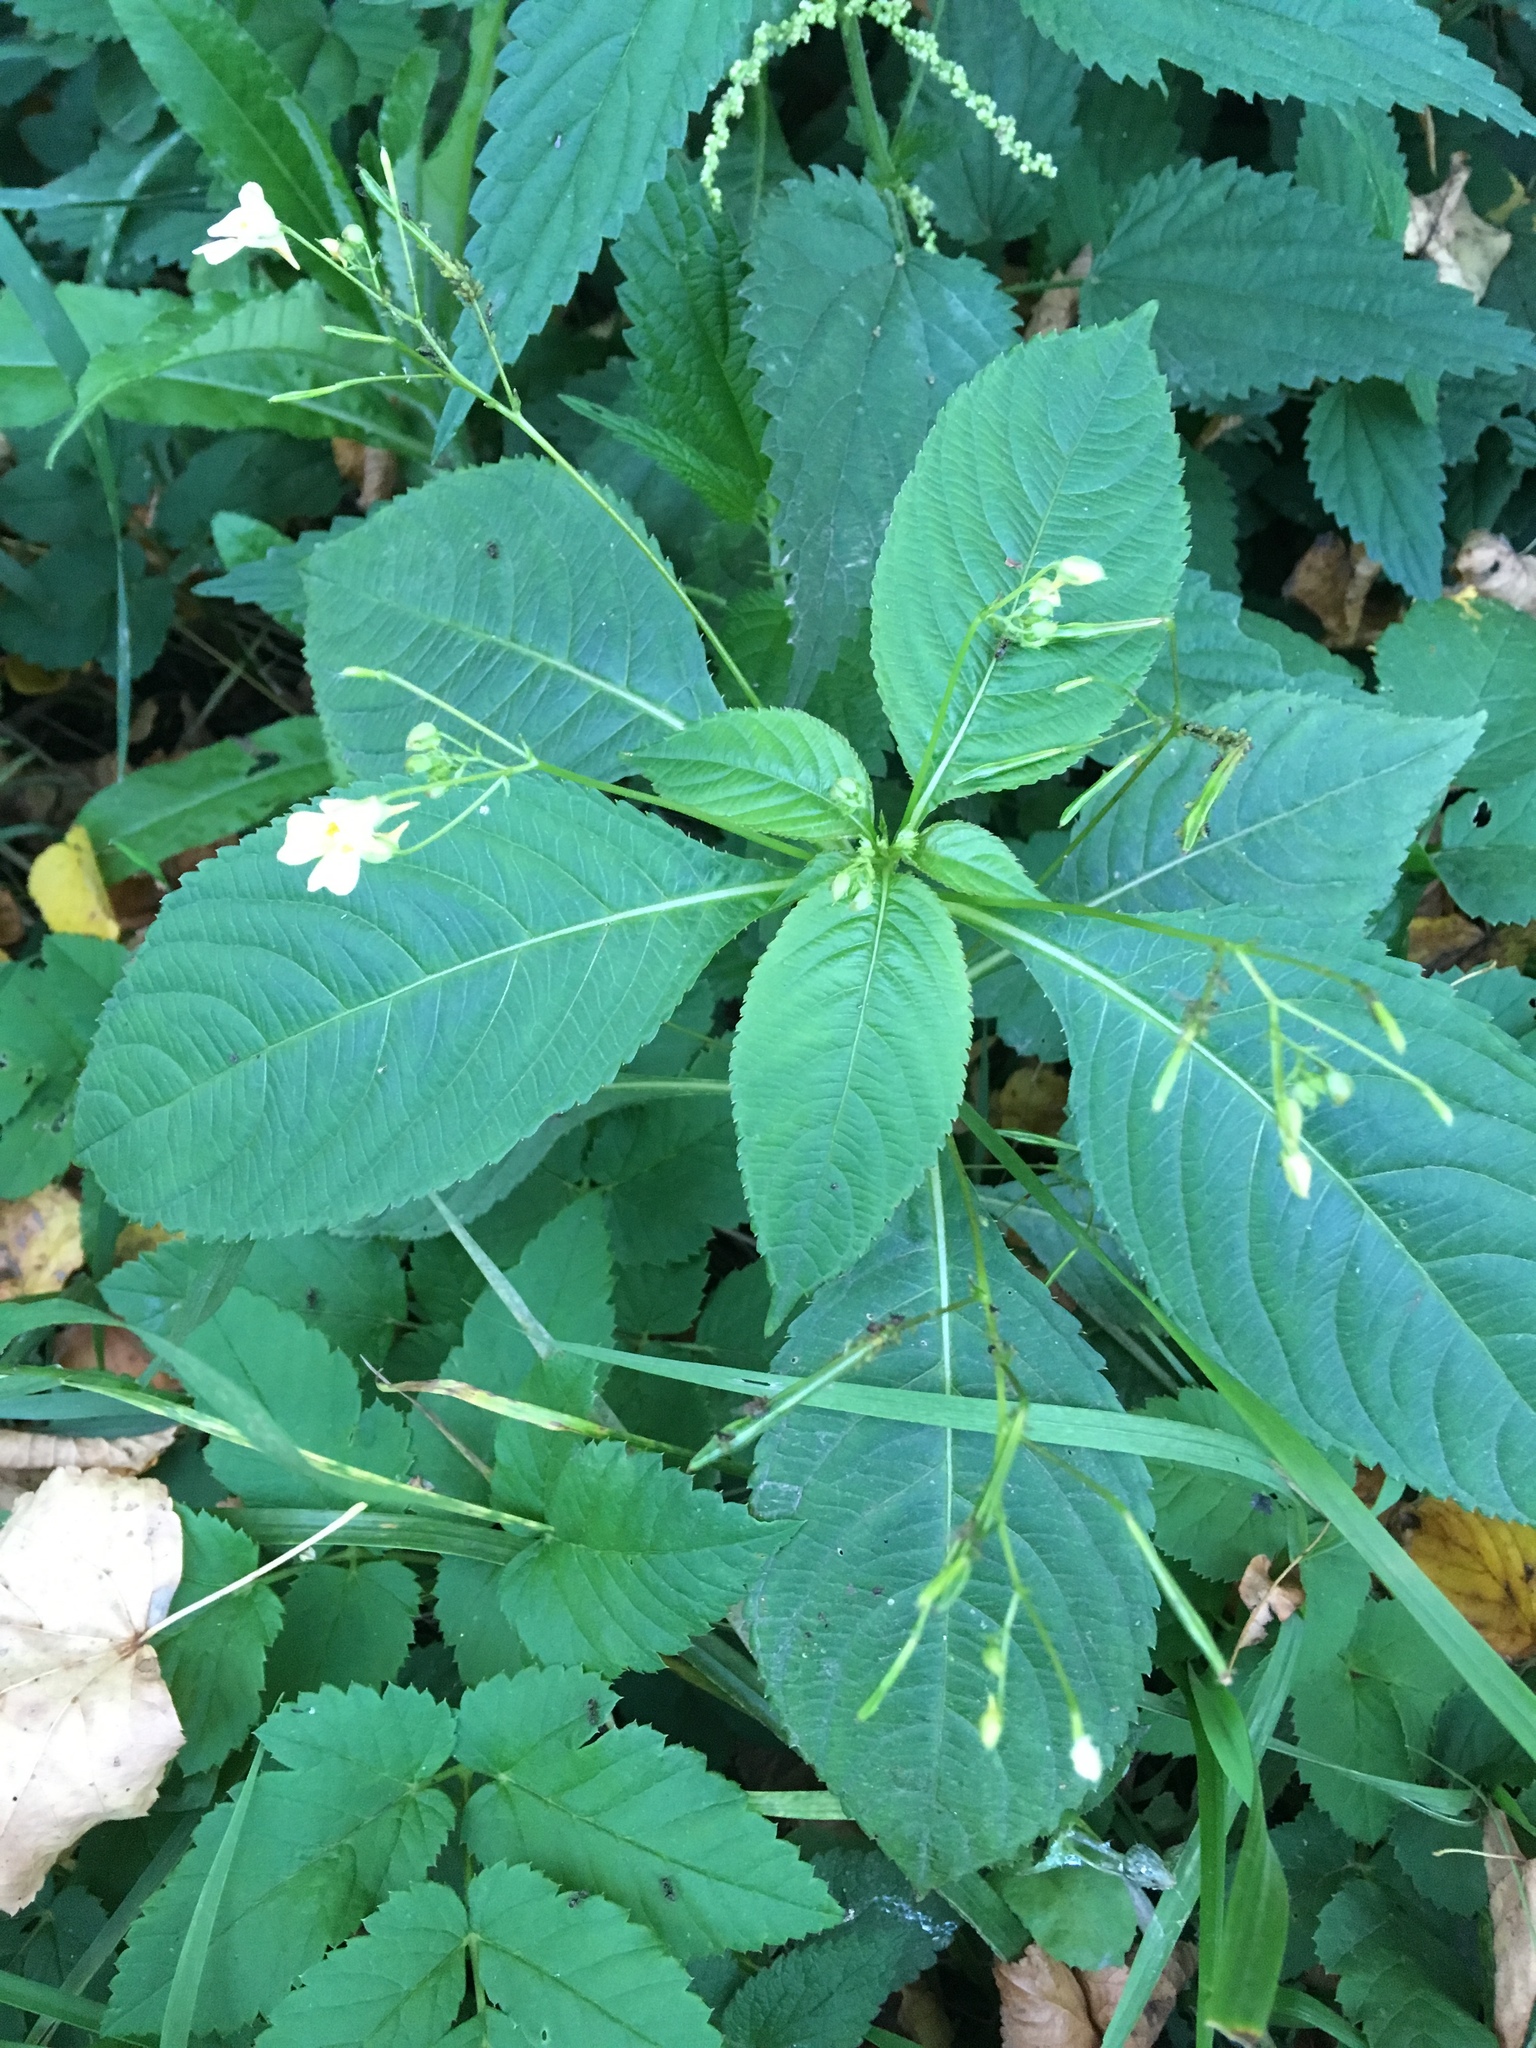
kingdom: Plantae
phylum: Tracheophyta
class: Magnoliopsida
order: Ericales
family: Balsaminaceae
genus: Impatiens
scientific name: Impatiens parviflora
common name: Small balsam
